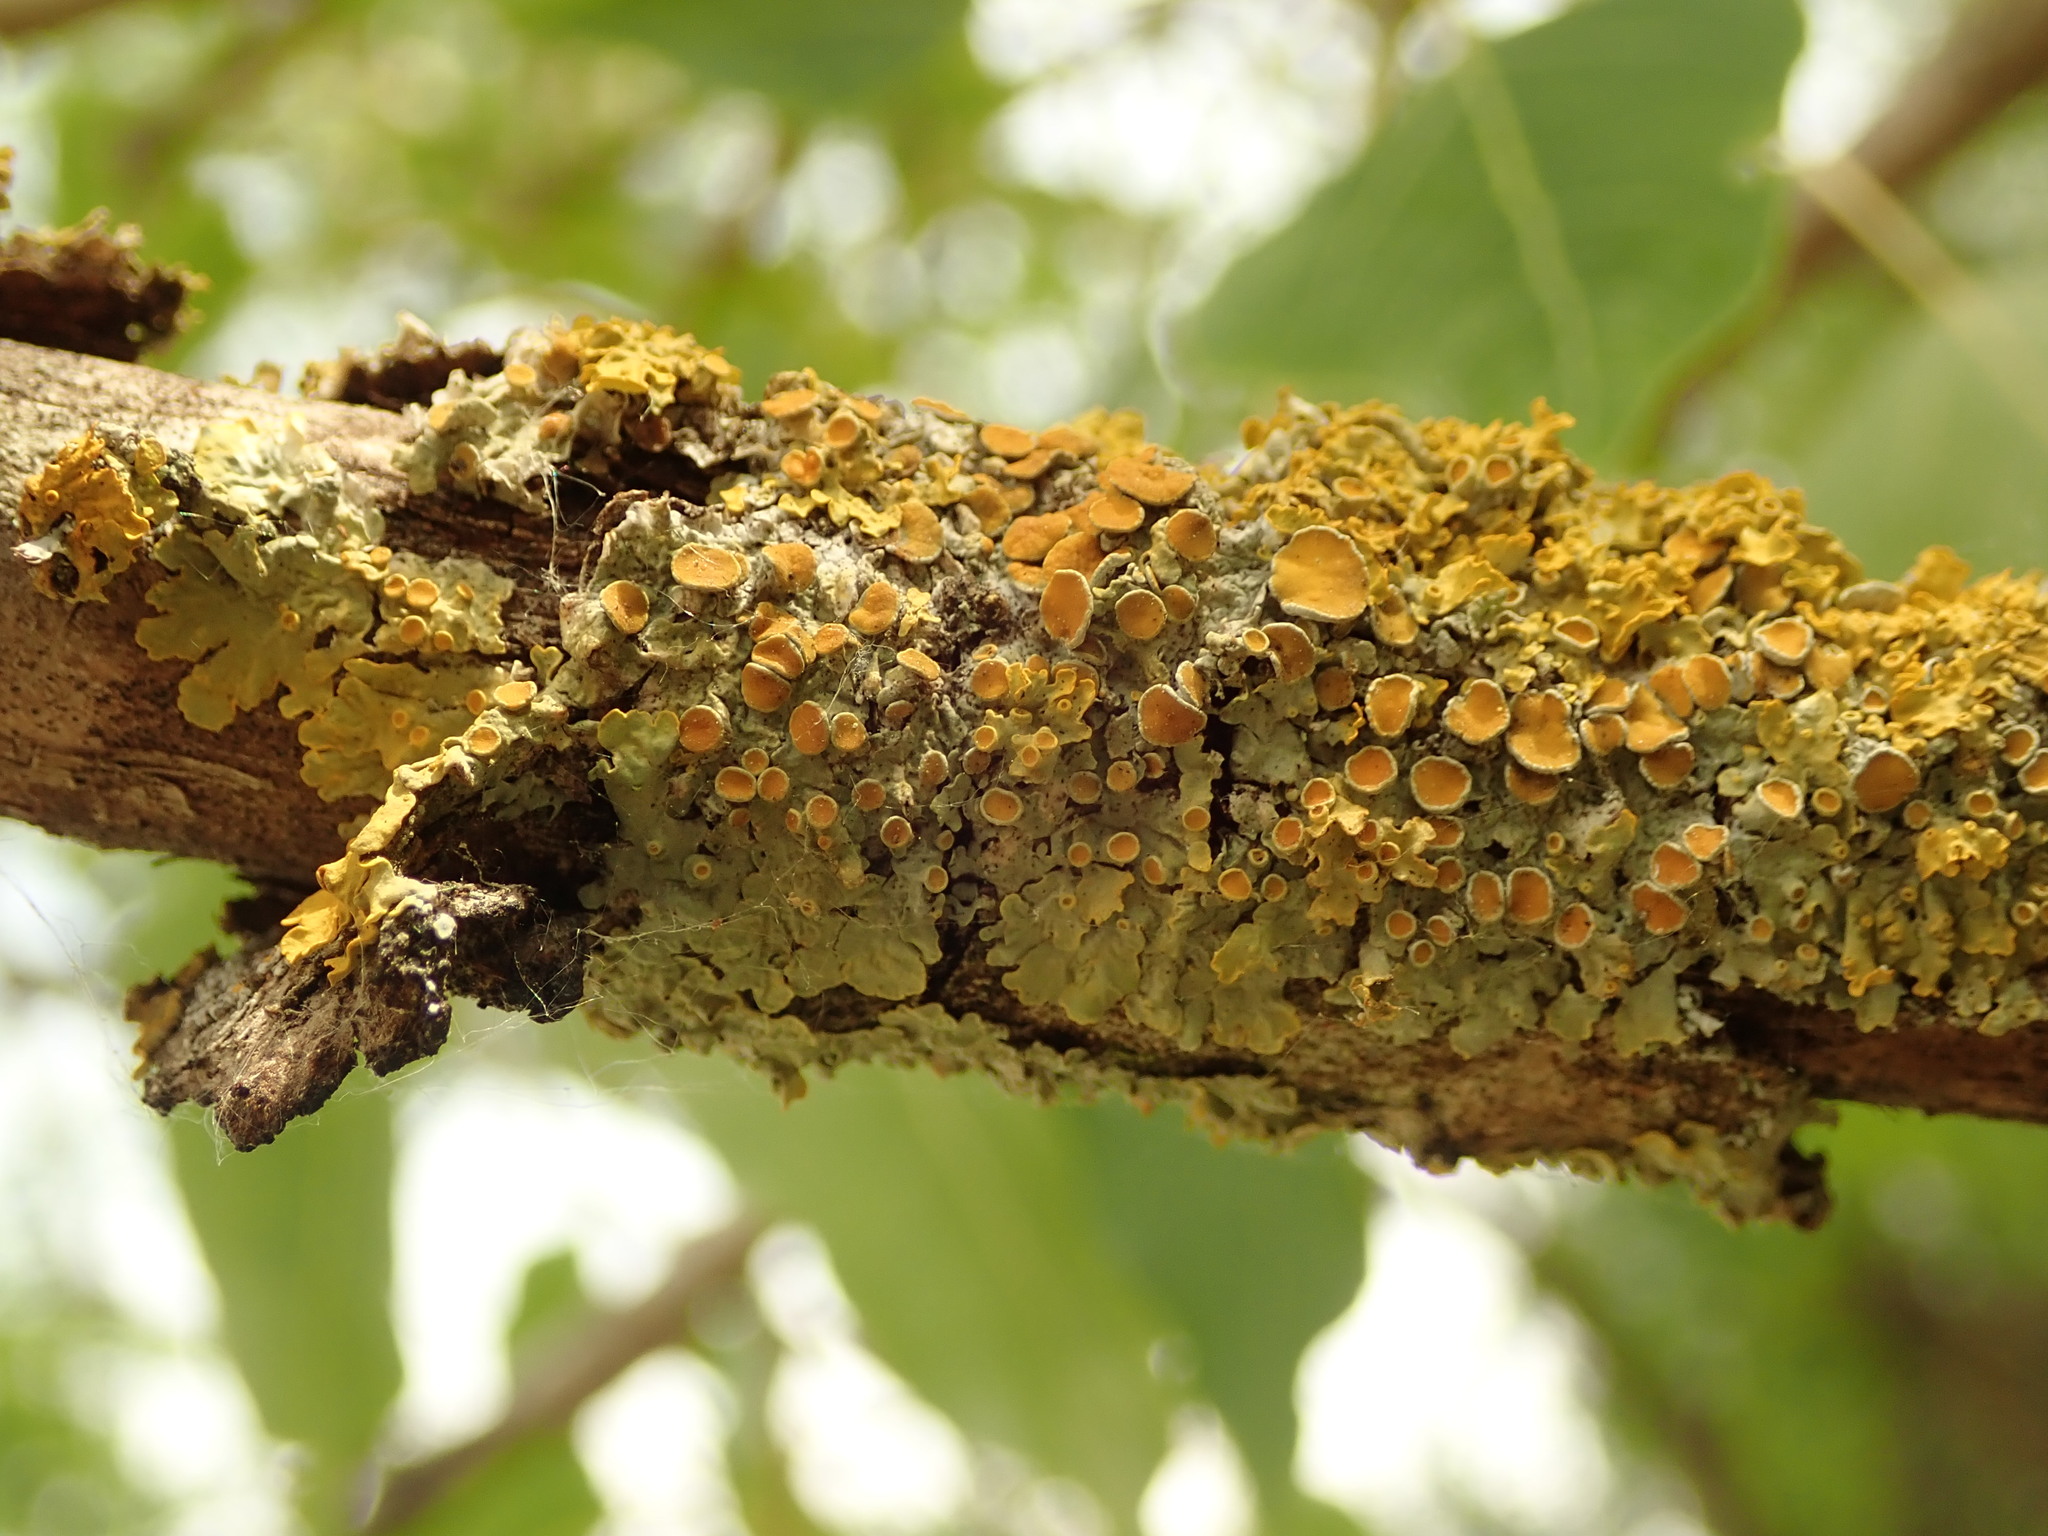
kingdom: Fungi
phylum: Ascomycota
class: Lecanoromycetes
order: Teloschistales
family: Teloschistaceae
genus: Xanthoria
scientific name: Xanthoria parietina
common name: Common orange lichen
